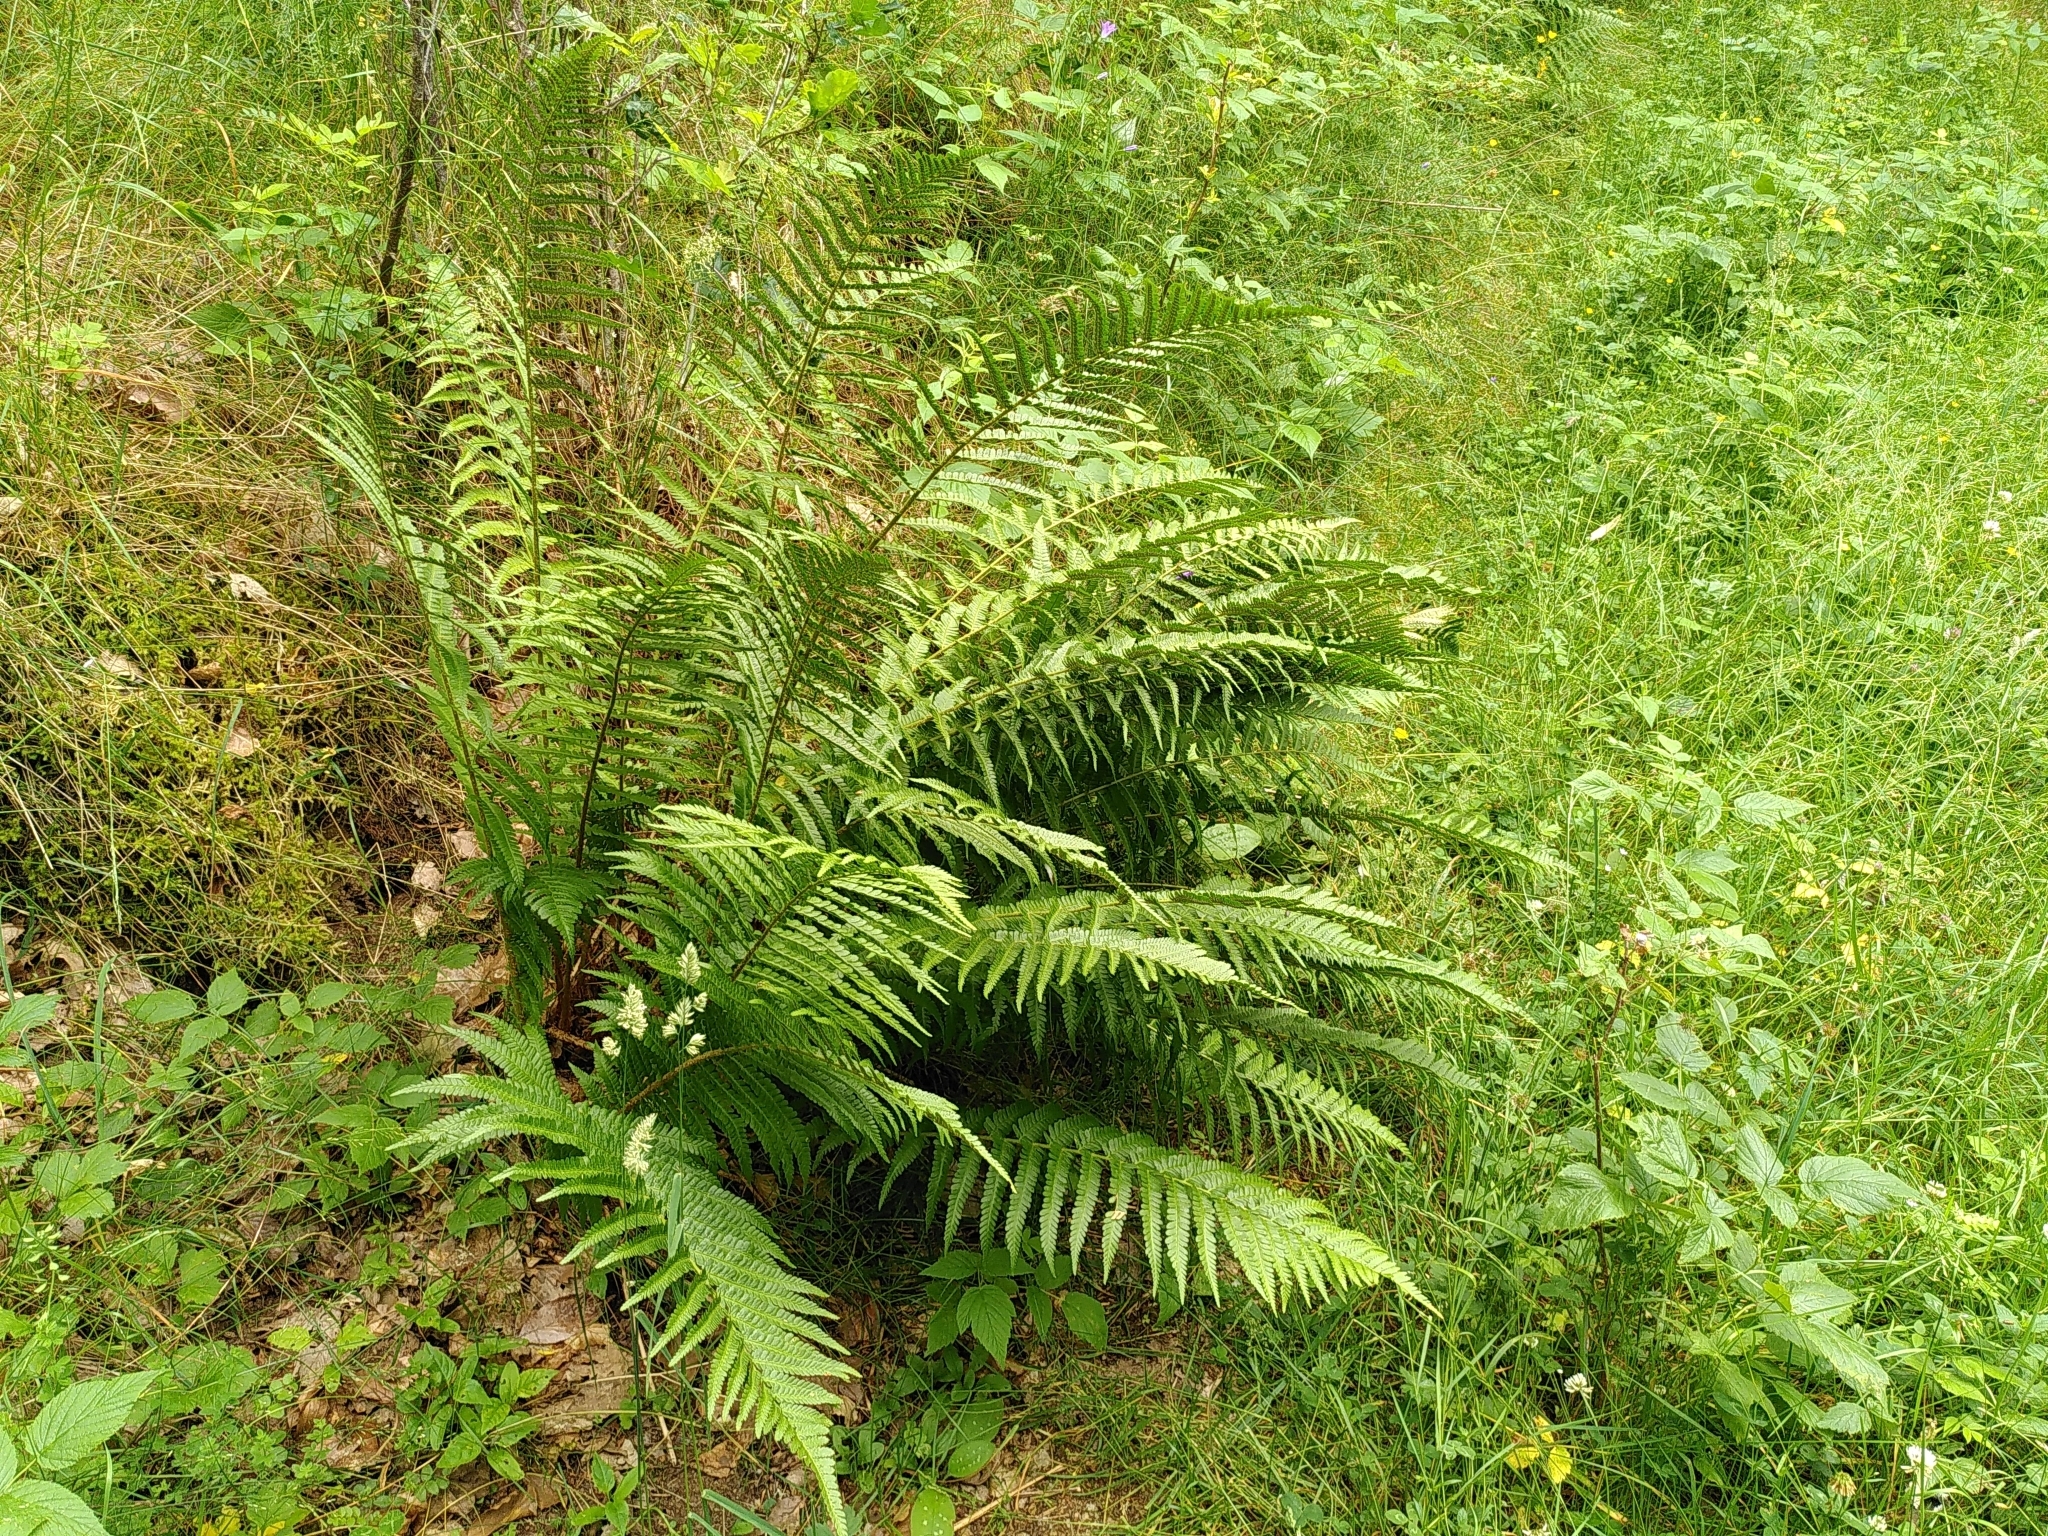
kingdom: Plantae
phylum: Tracheophyta
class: Polypodiopsida
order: Polypodiales
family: Dryopteridaceae
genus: Dryopteris
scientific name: Dryopteris filix-mas
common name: Male fern
